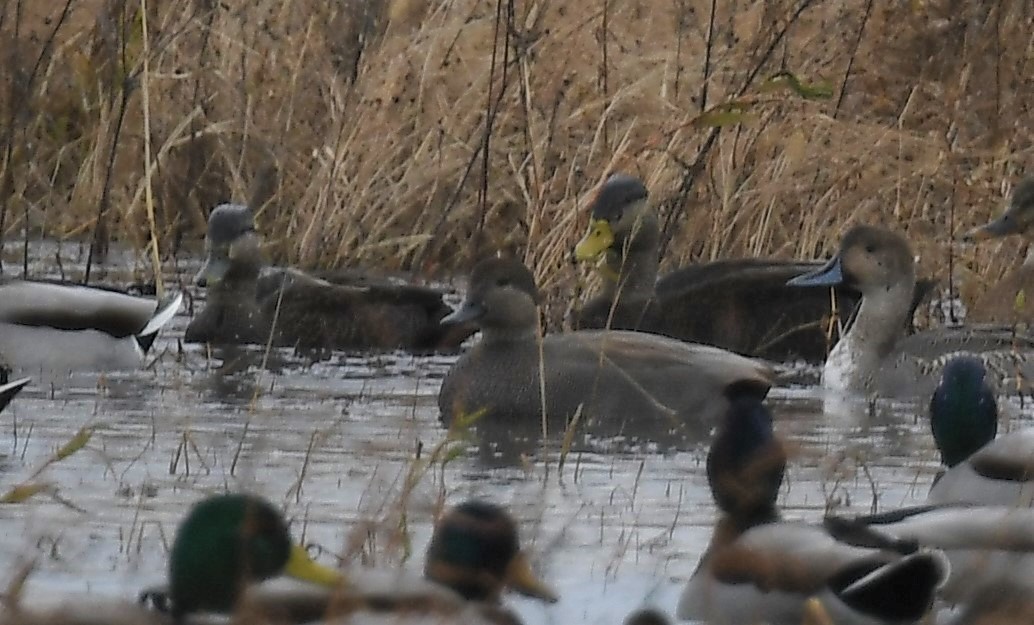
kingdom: Animalia
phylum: Chordata
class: Aves
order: Anseriformes
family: Anatidae
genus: Anas
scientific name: Anas rubripes
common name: American black duck
